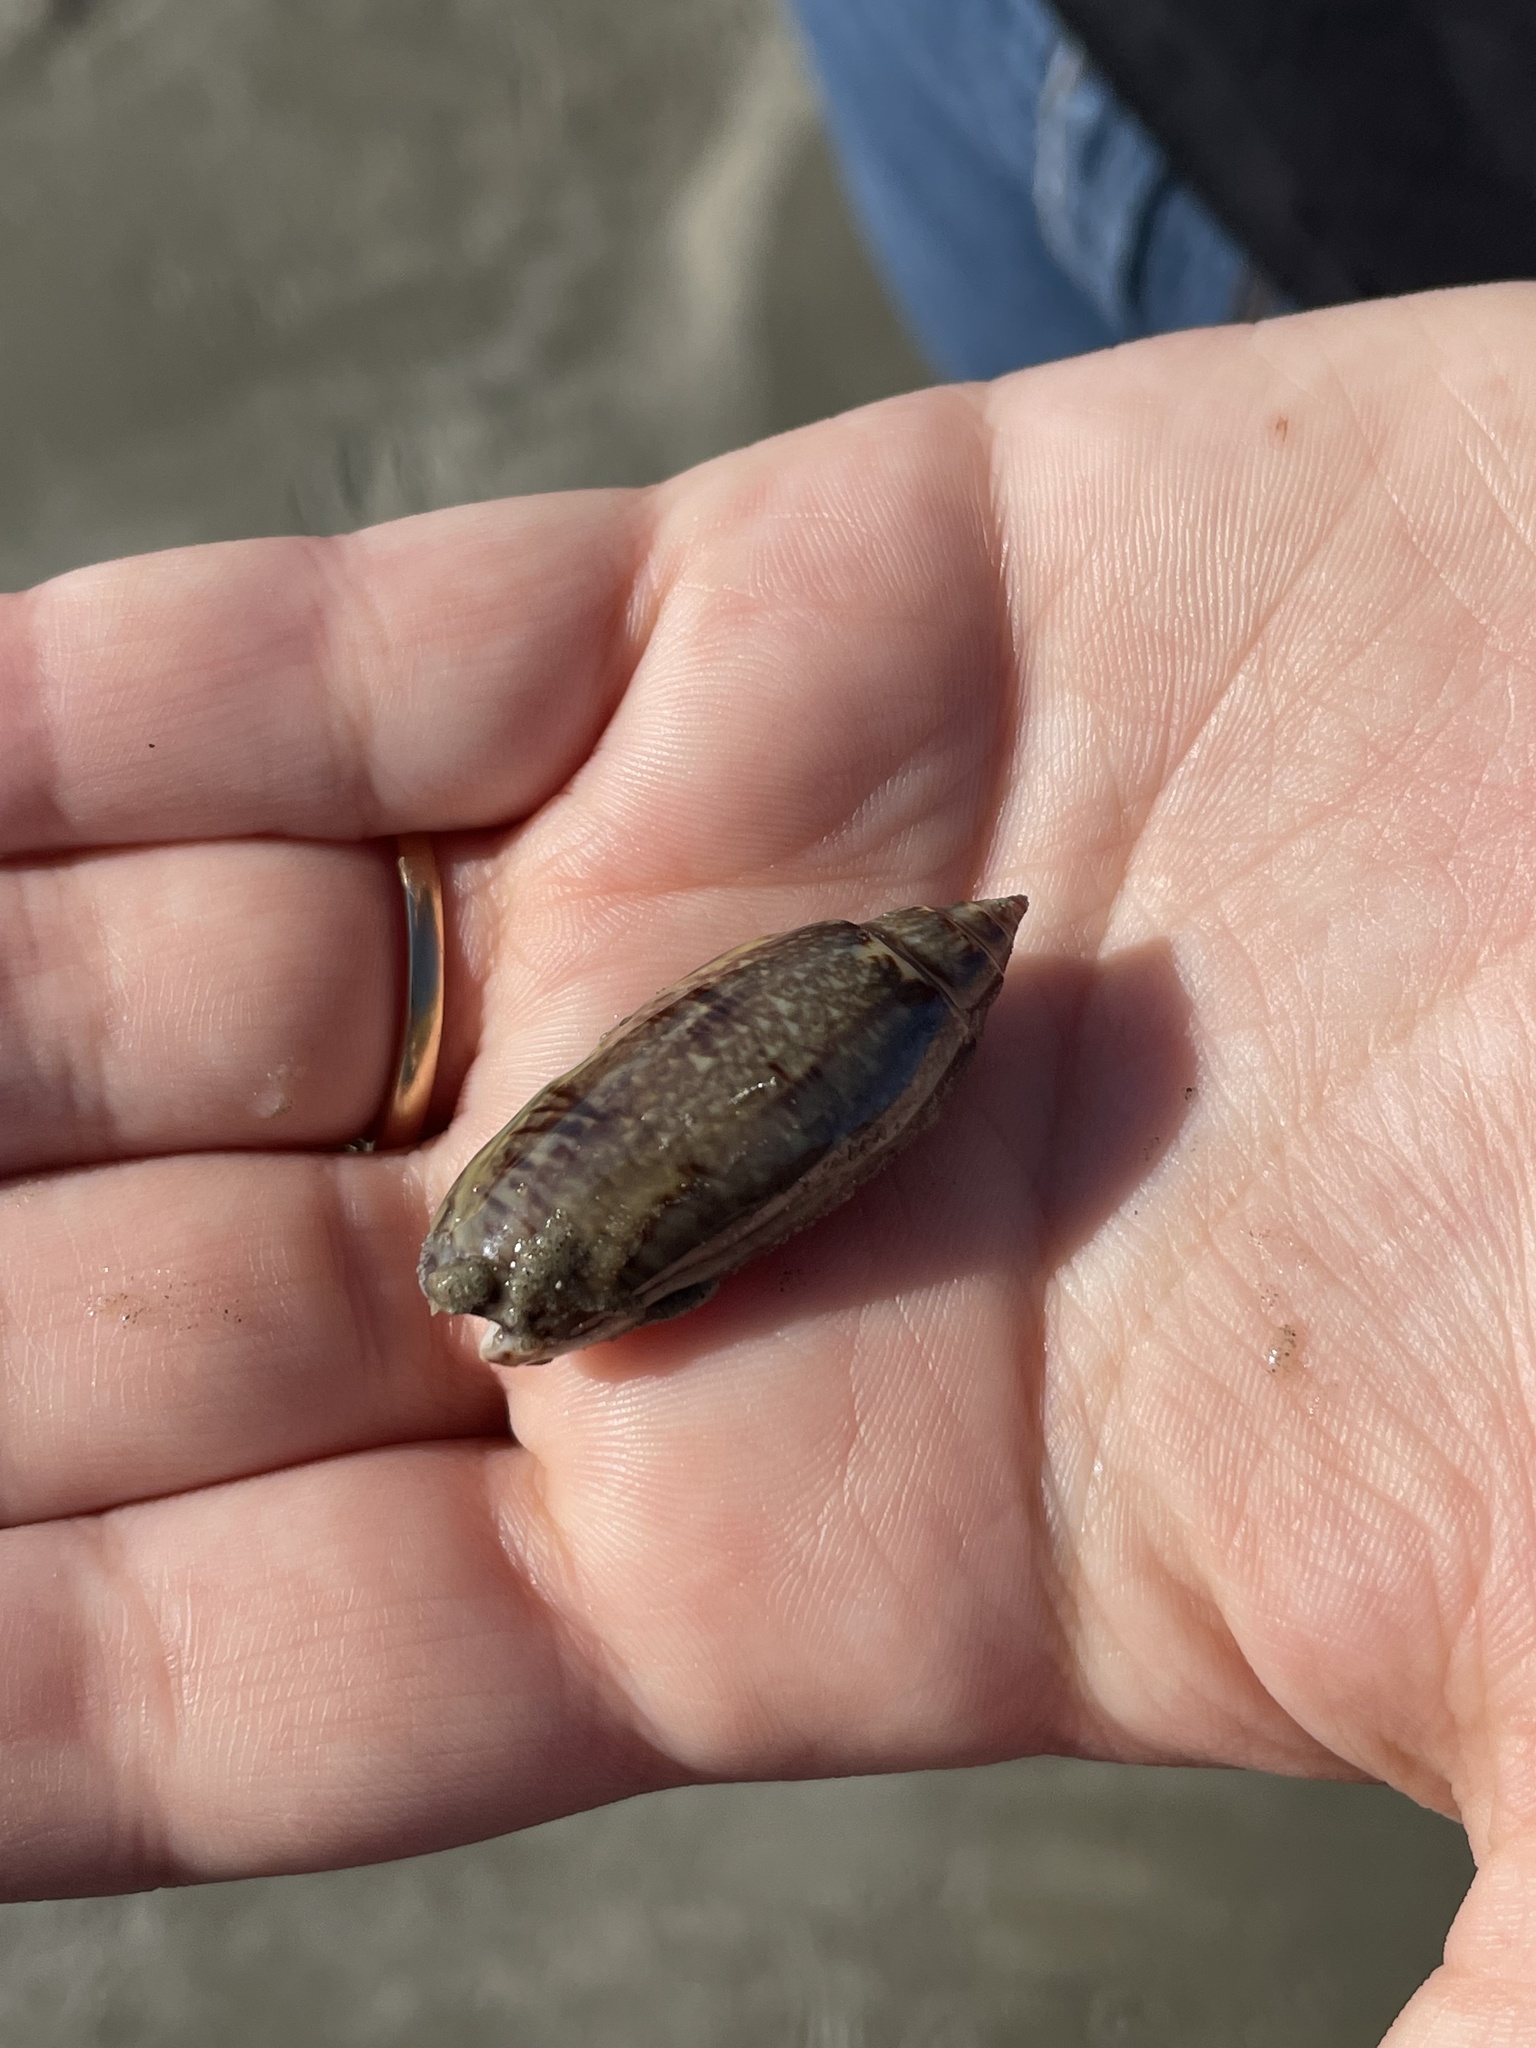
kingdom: Animalia
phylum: Mollusca
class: Gastropoda
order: Neogastropoda
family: Olividae
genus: Oliva
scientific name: Oliva sayana
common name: Lettered olive
